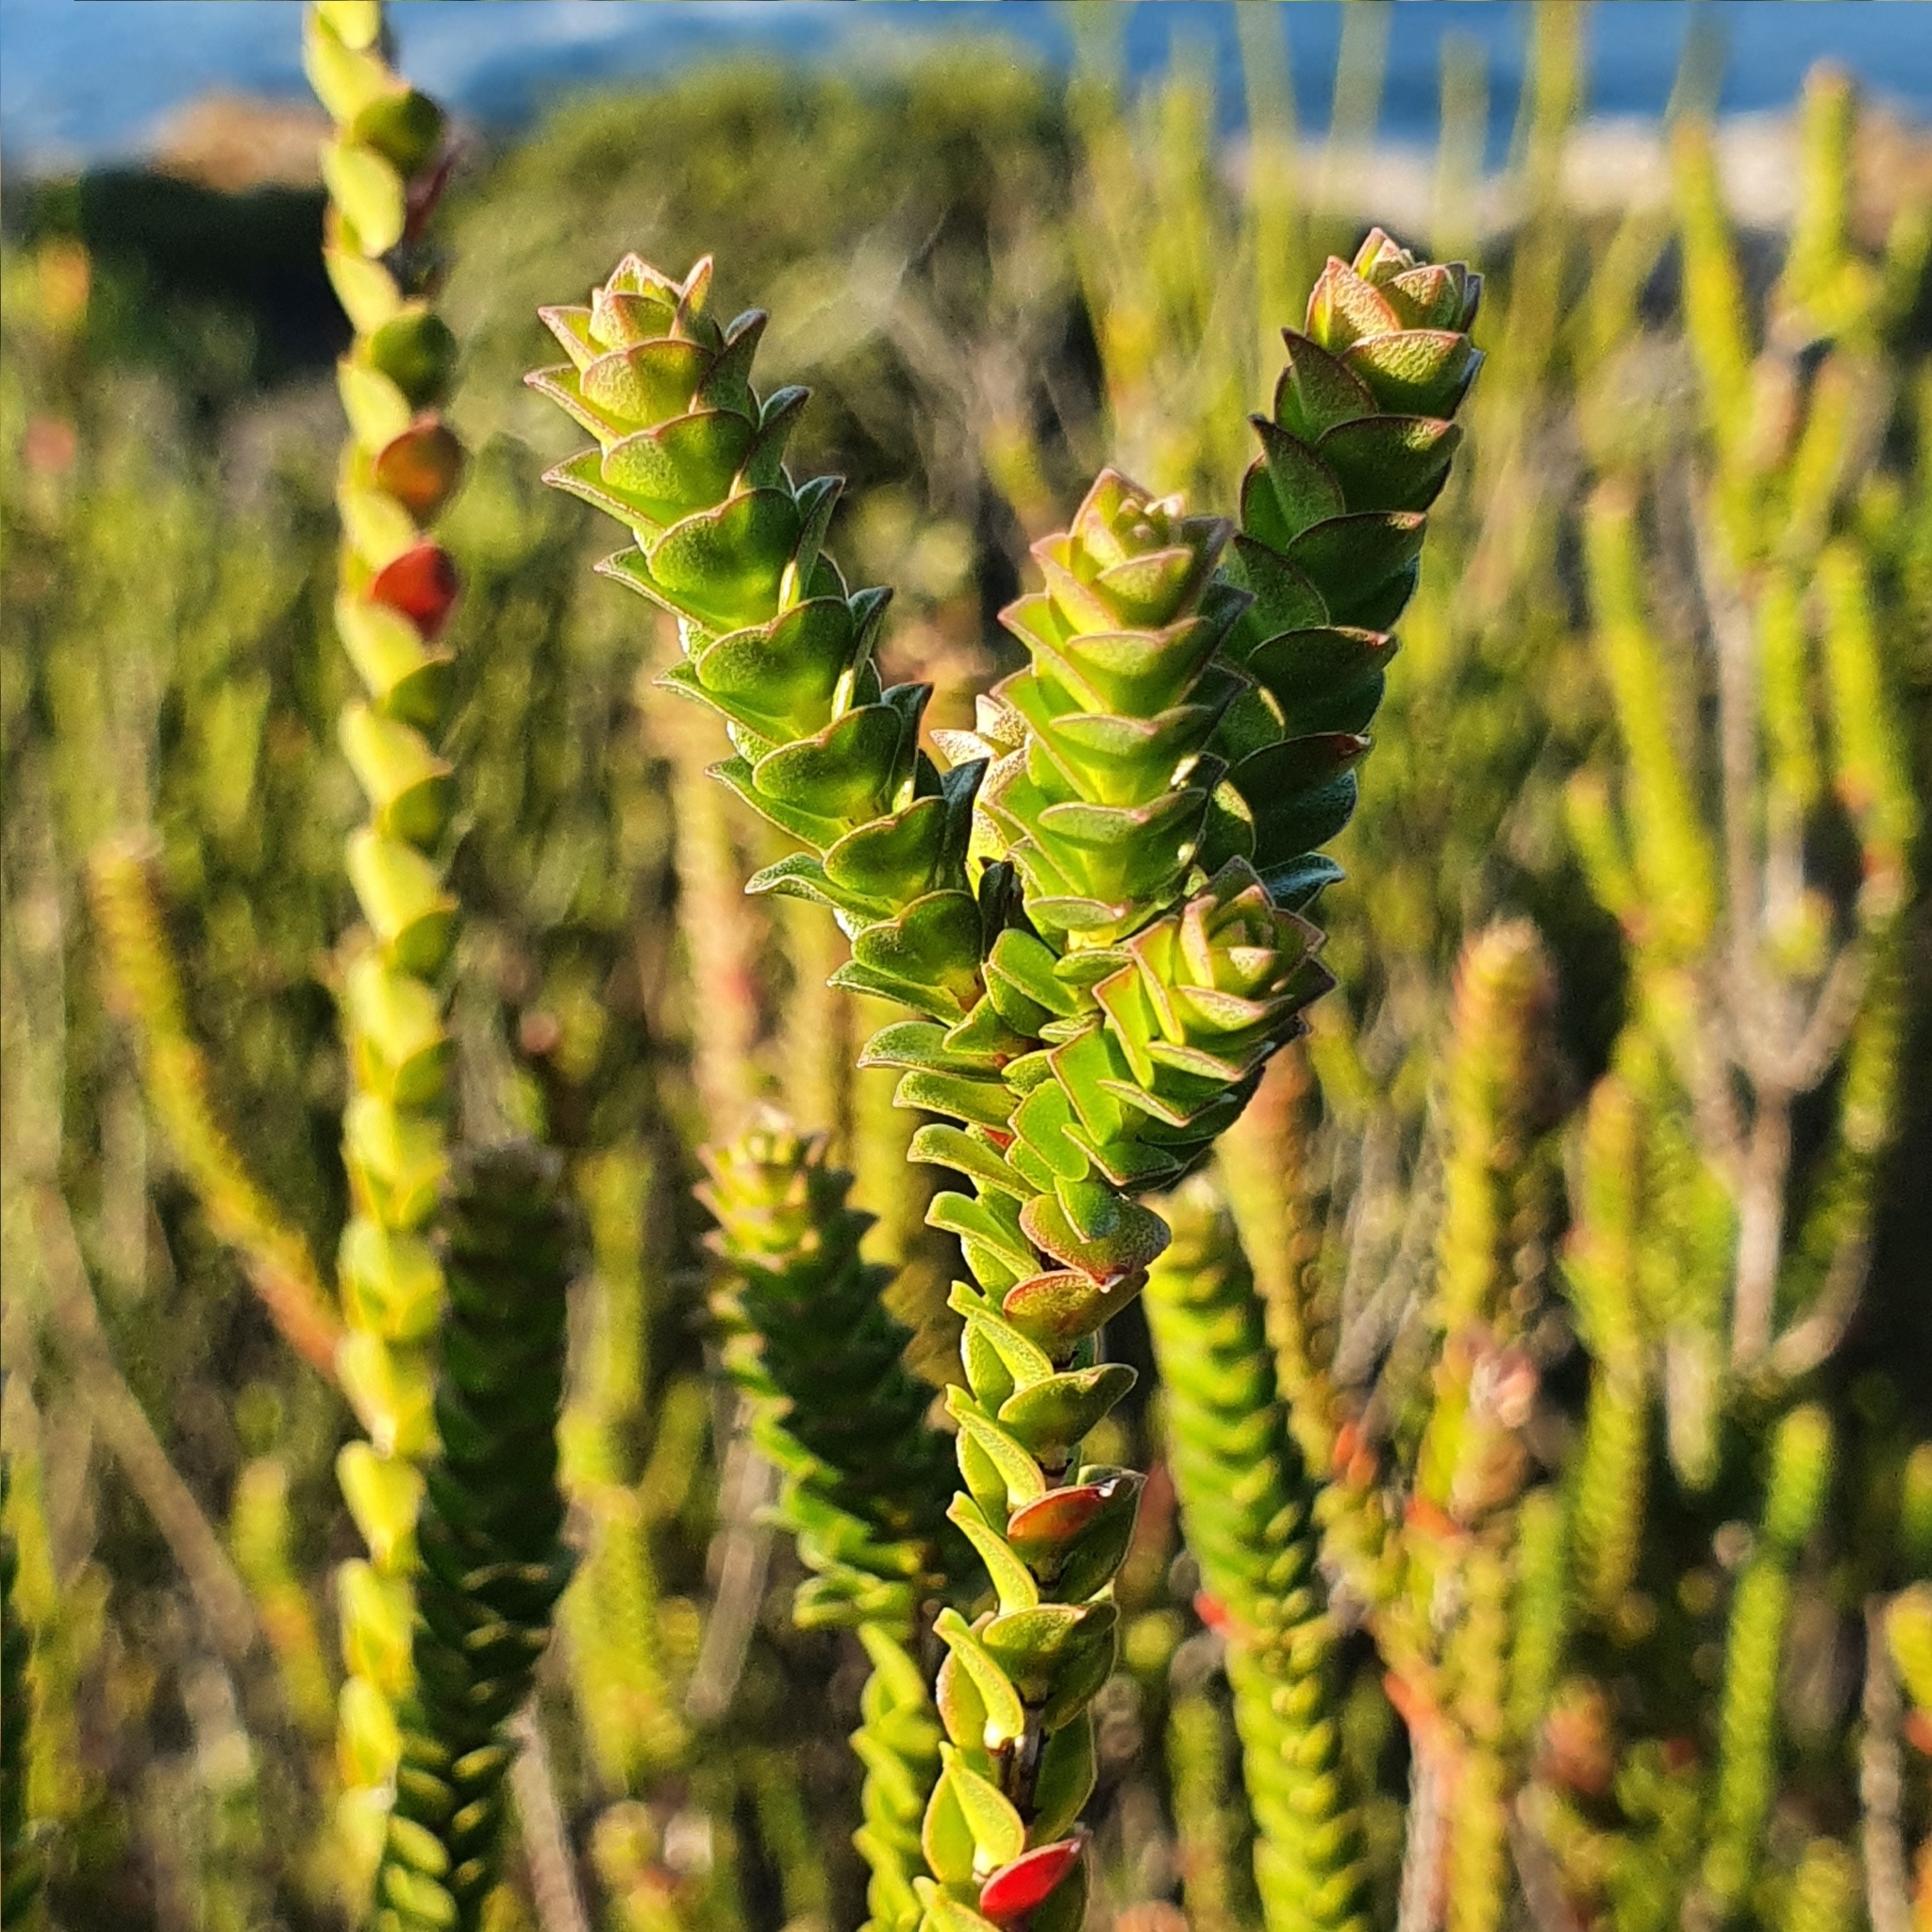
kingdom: Plantae
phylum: Tracheophyta
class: Magnoliopsida
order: Myrtales
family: Myrtaceae
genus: Baeckea
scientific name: Baeckea imbricata
